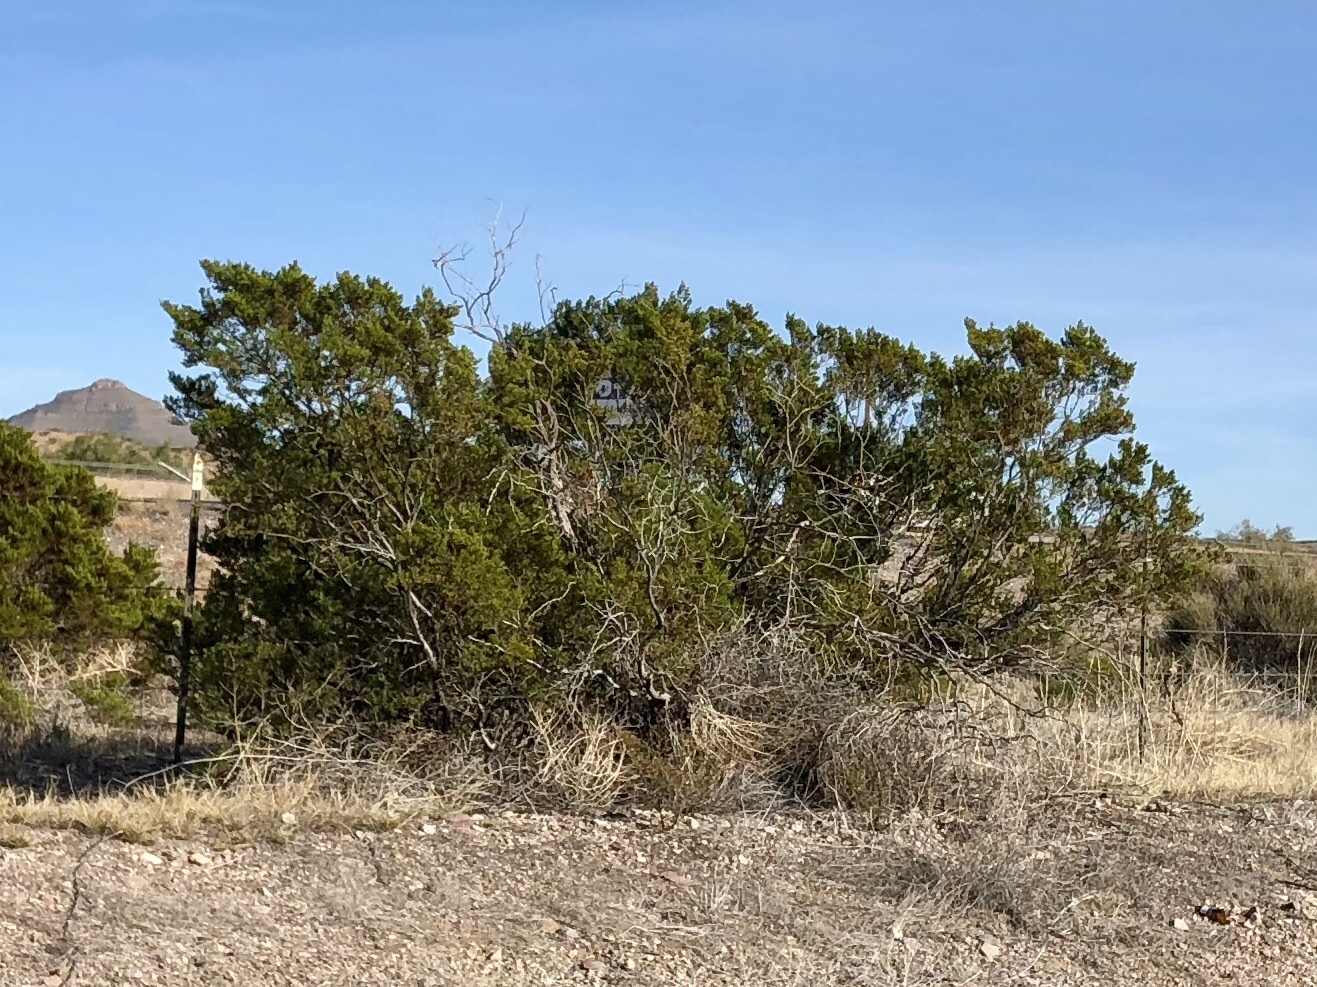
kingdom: Plantae
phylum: Tracheophyta
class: Magnoliopsida
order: Zygophyllales
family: Zygophyllaceae
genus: Larrea
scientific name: Larrea tridentata
